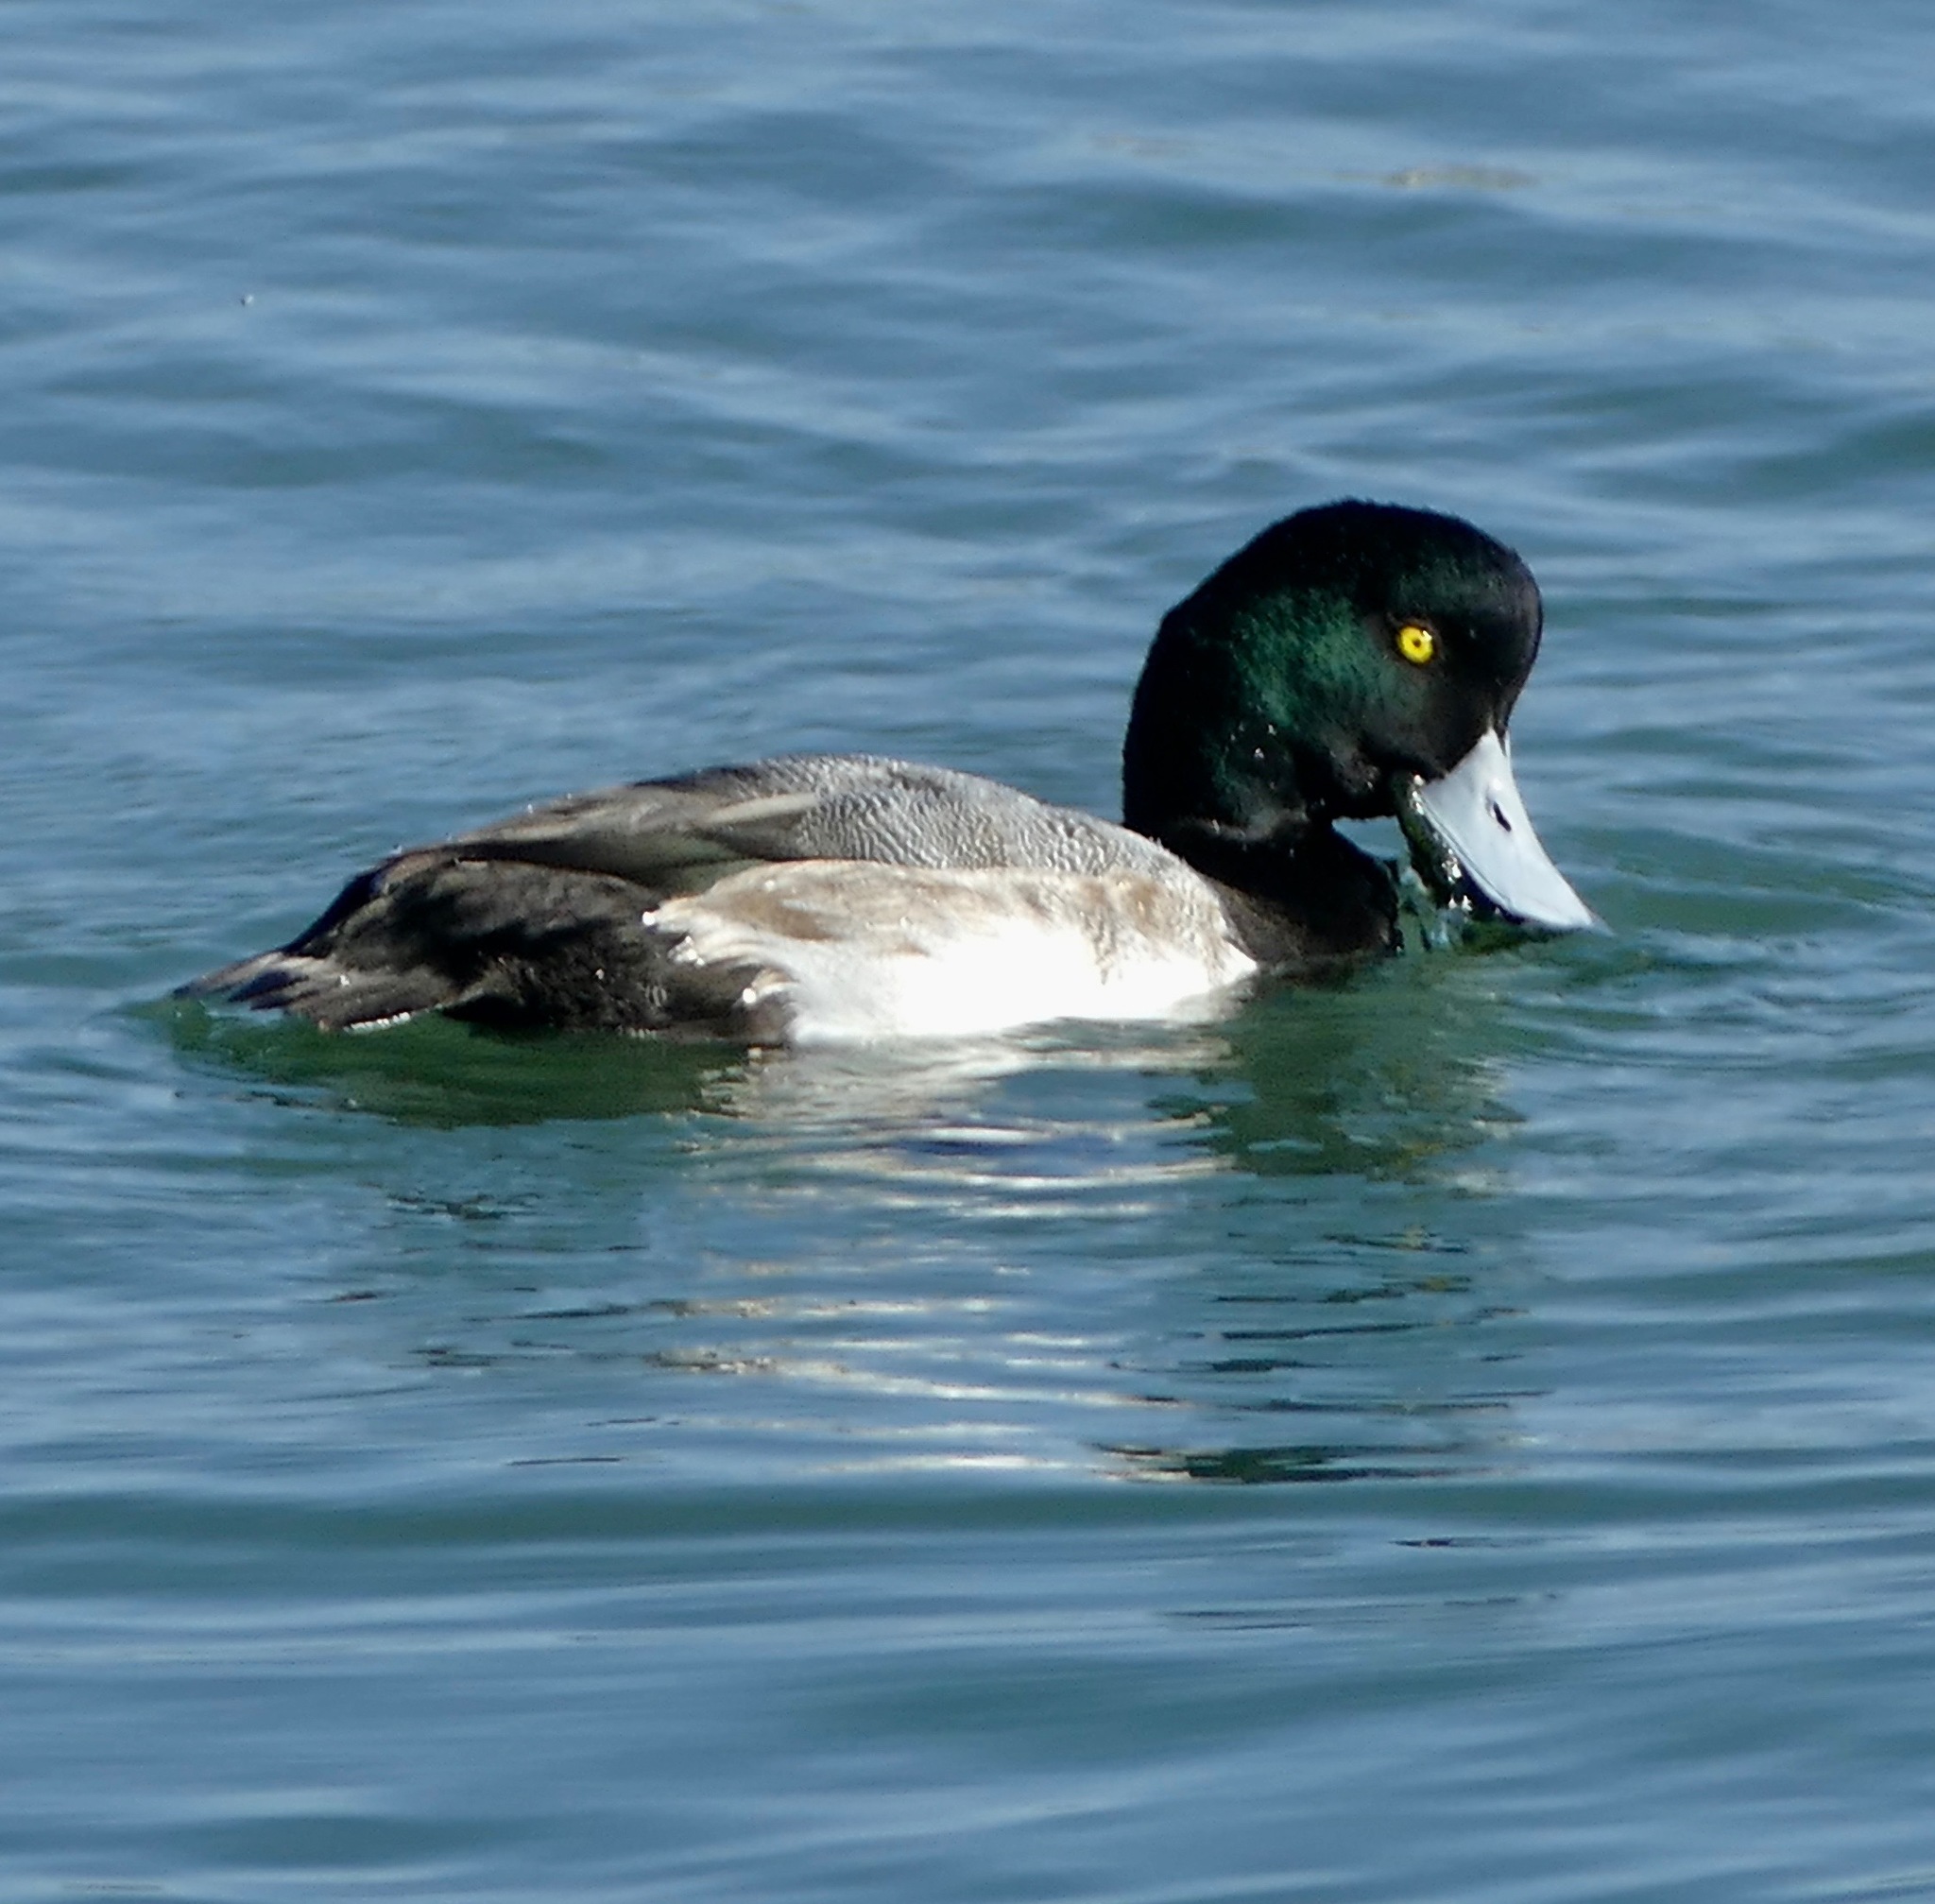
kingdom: Animalia
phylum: Chordata
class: Aves
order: Anseriformes
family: Anatidae
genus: Aythya
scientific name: Aythya marila
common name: Greater scaup
